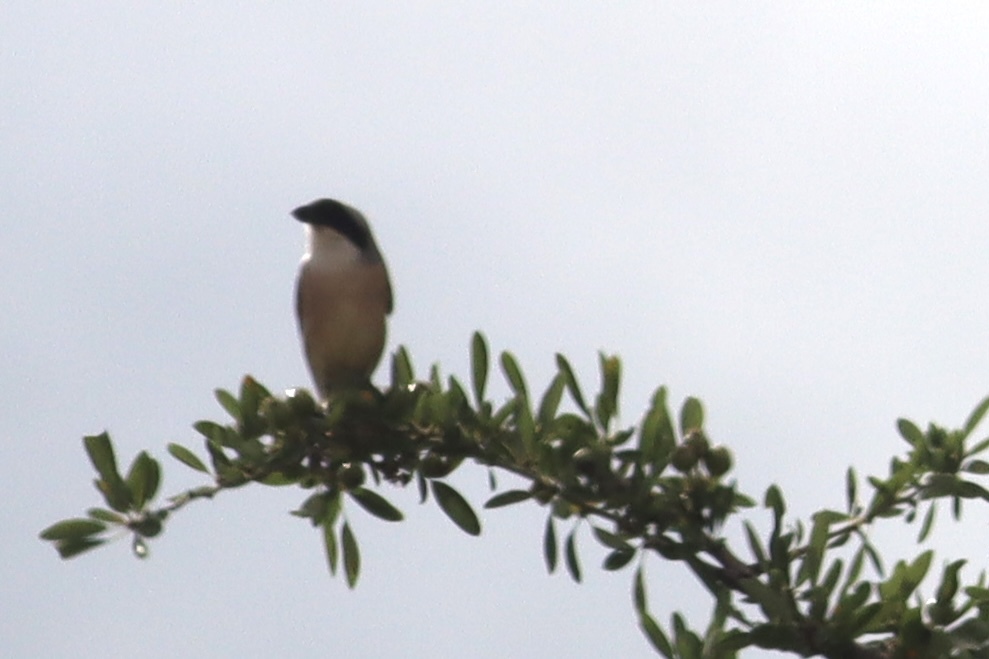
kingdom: Animalia
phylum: Chordata
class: Aves
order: Passeriformes
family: Laniidae
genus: Lanius
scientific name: Lanius minor
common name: Lesser grey shrike
